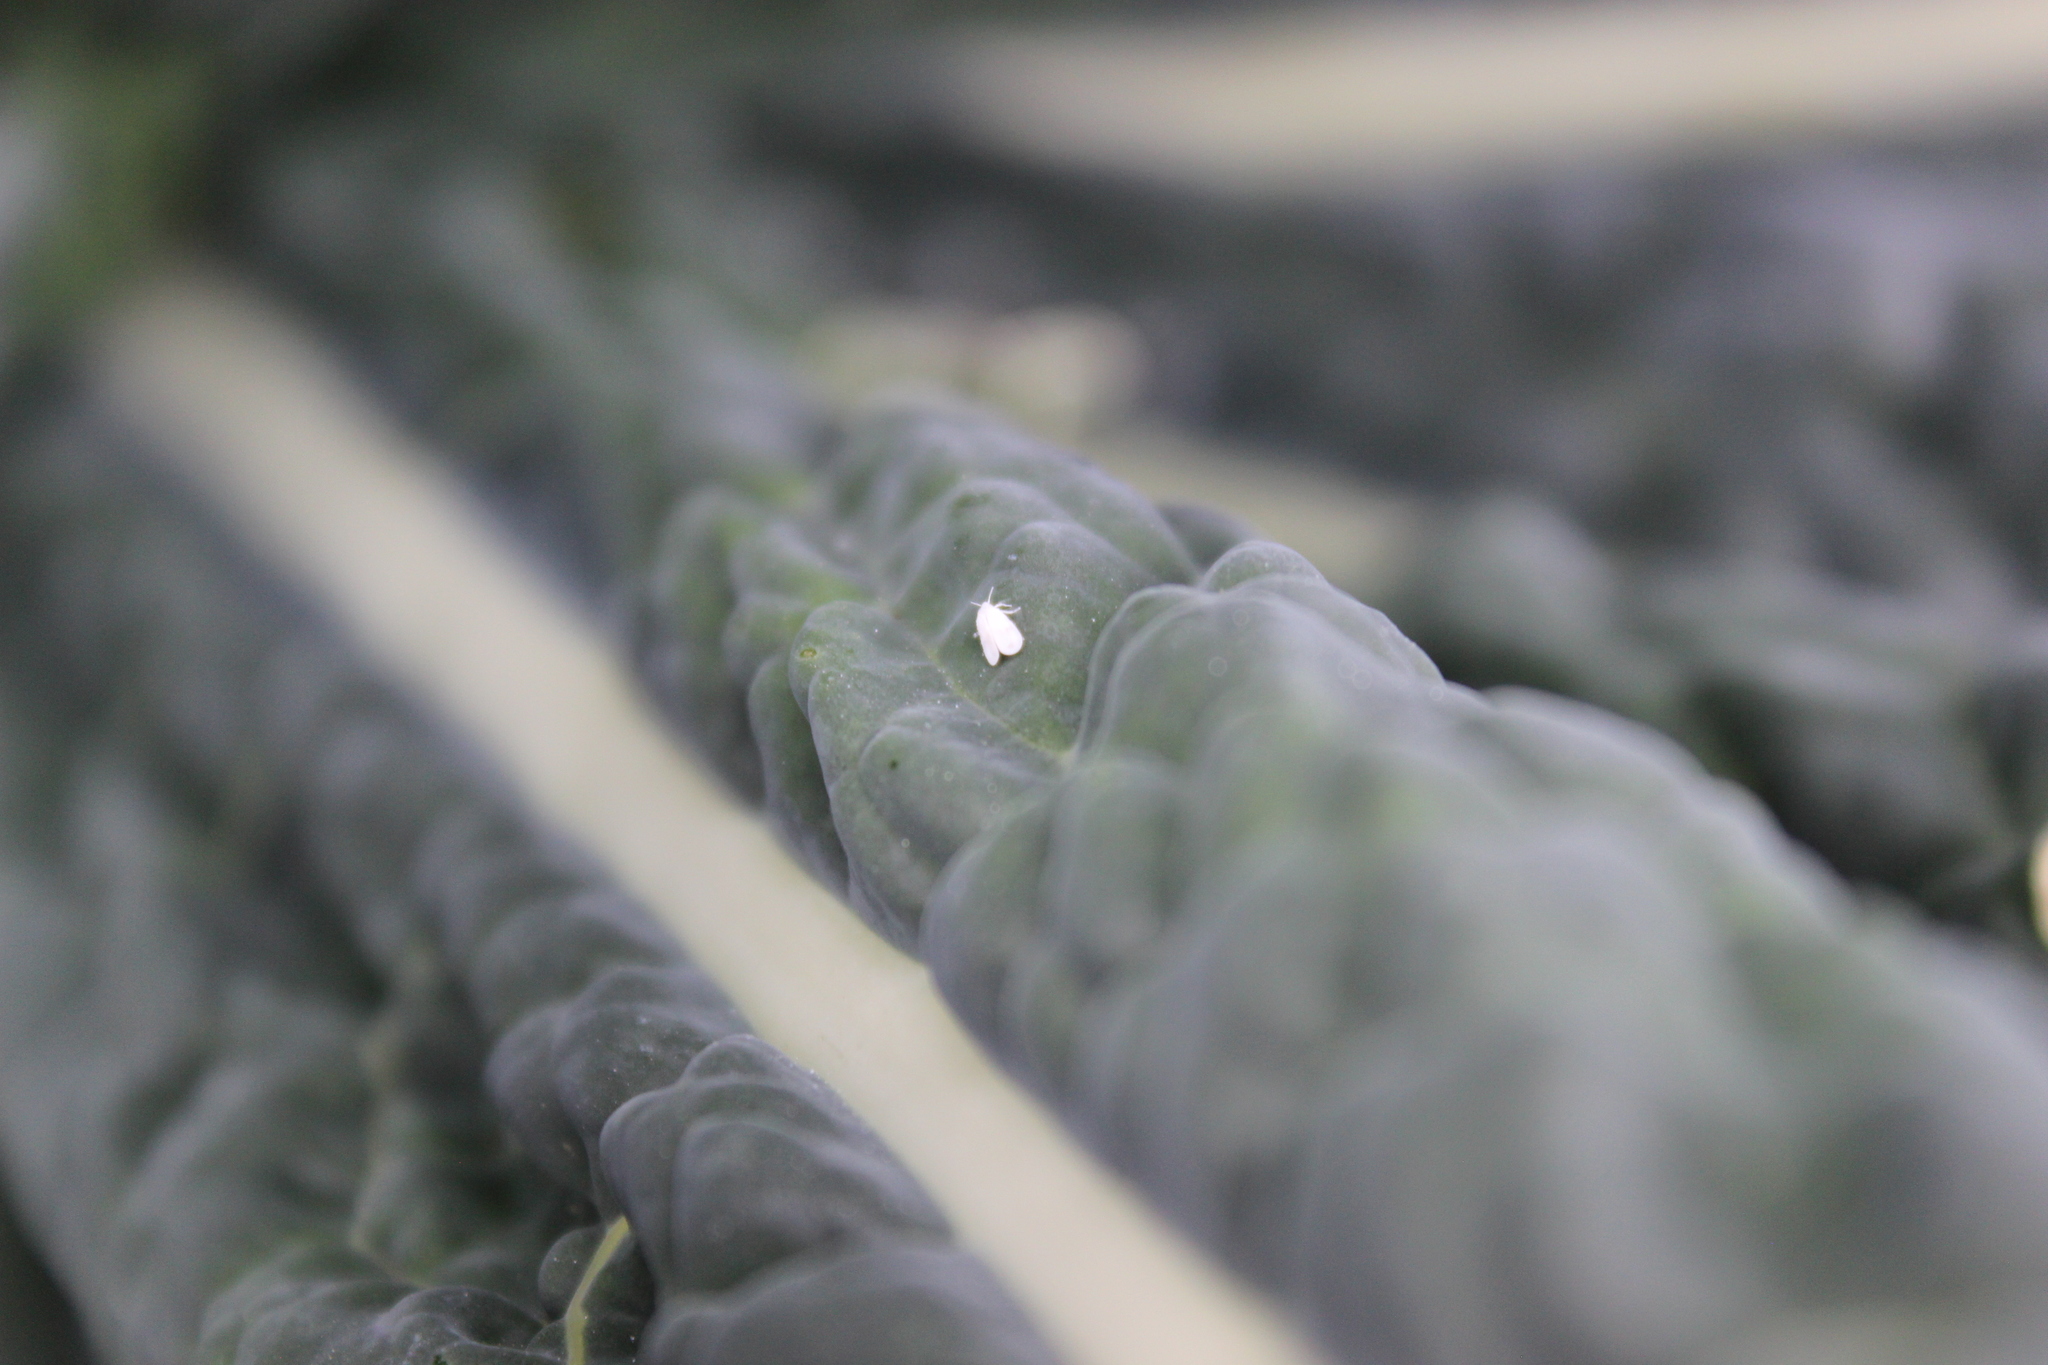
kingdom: Animalia
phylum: Arthropoda
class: Insecta
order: Hemiptera
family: Aleyrodidae
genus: Aleyrodes
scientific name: Aleyrodes proletella
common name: Cabbage whitefly
